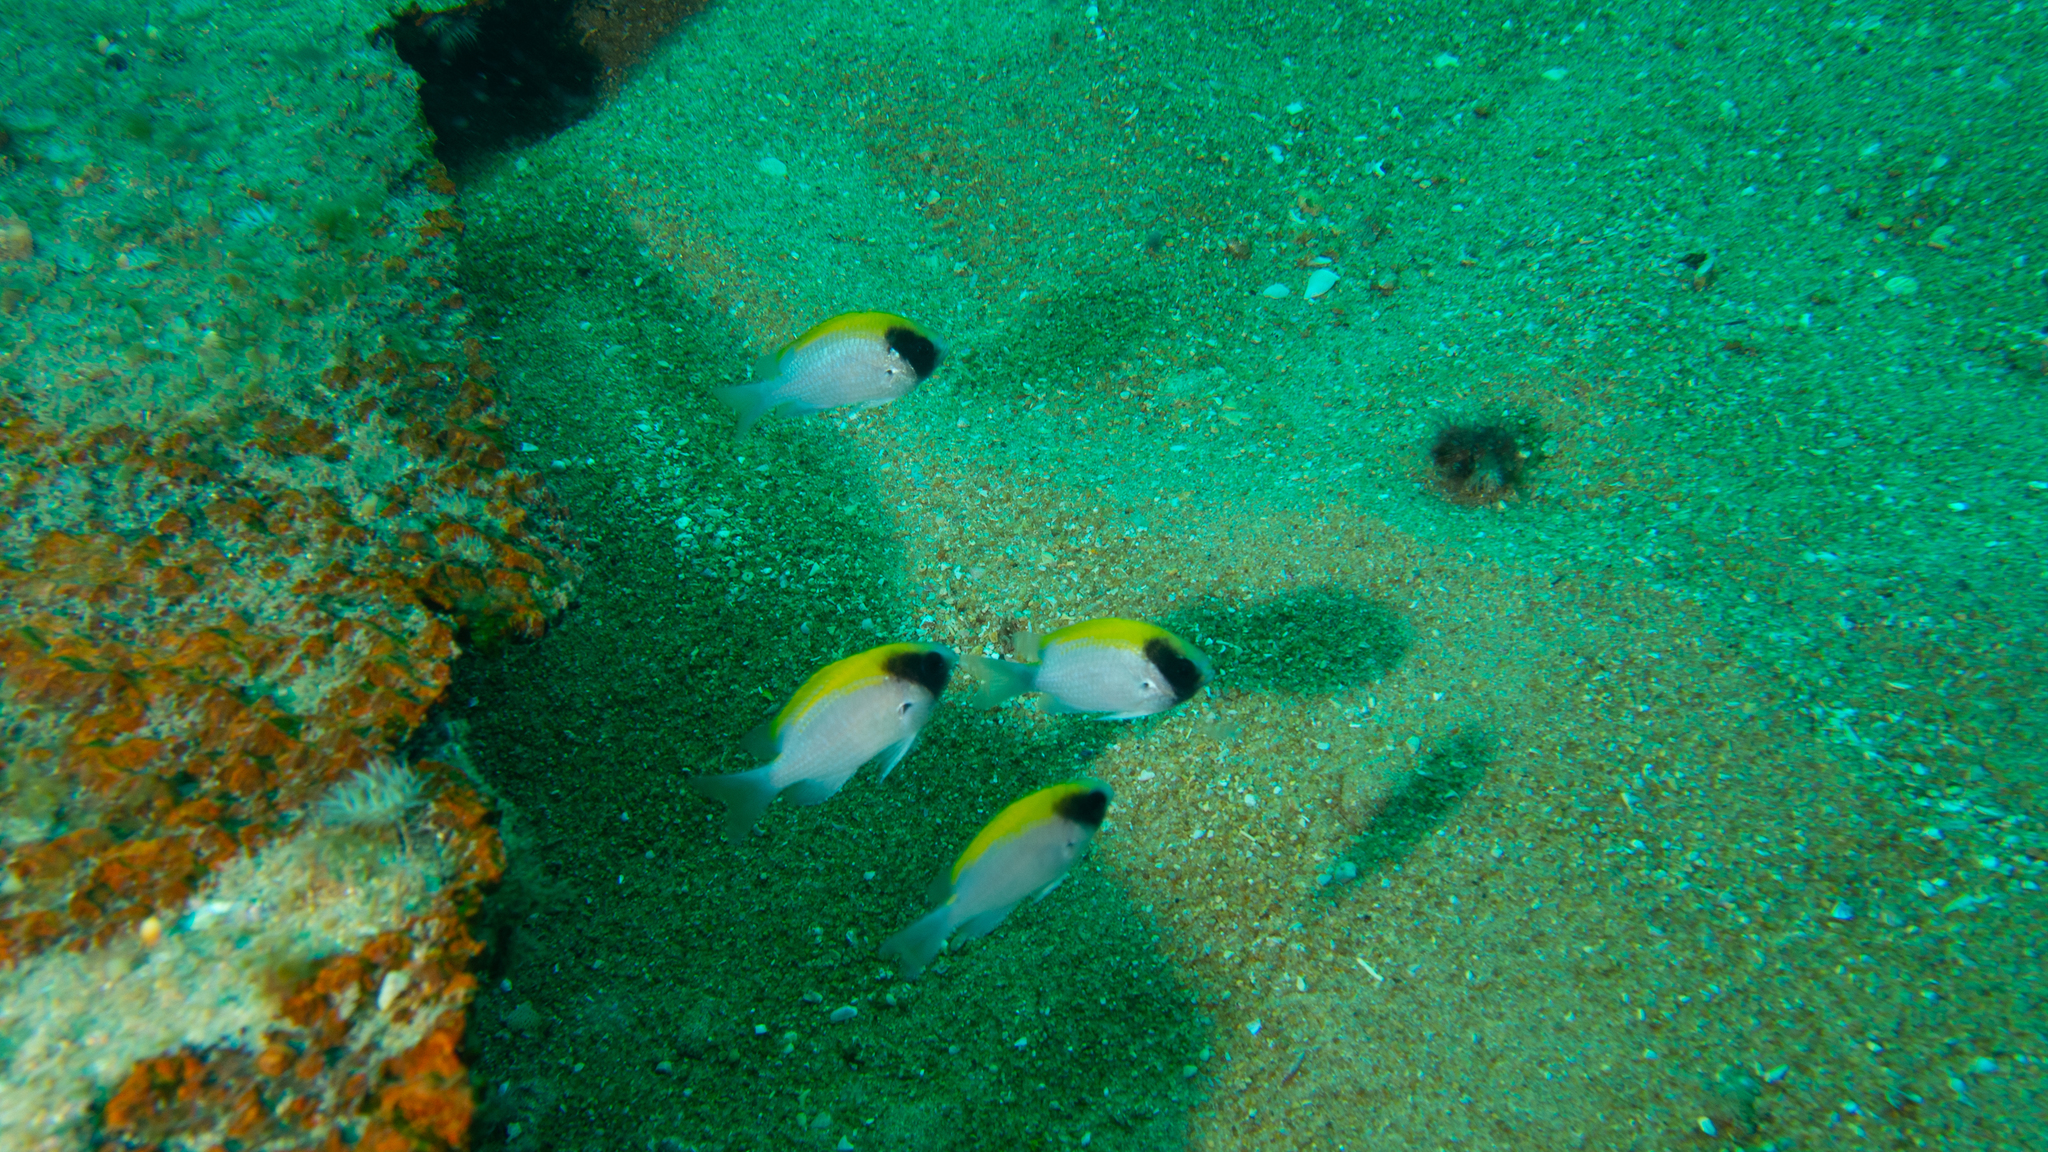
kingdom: Animalia
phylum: Chordata
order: Perciformes
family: Pomacentridae
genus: Chromis
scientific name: Chromis klunzingeri
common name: Black-headed chromis
